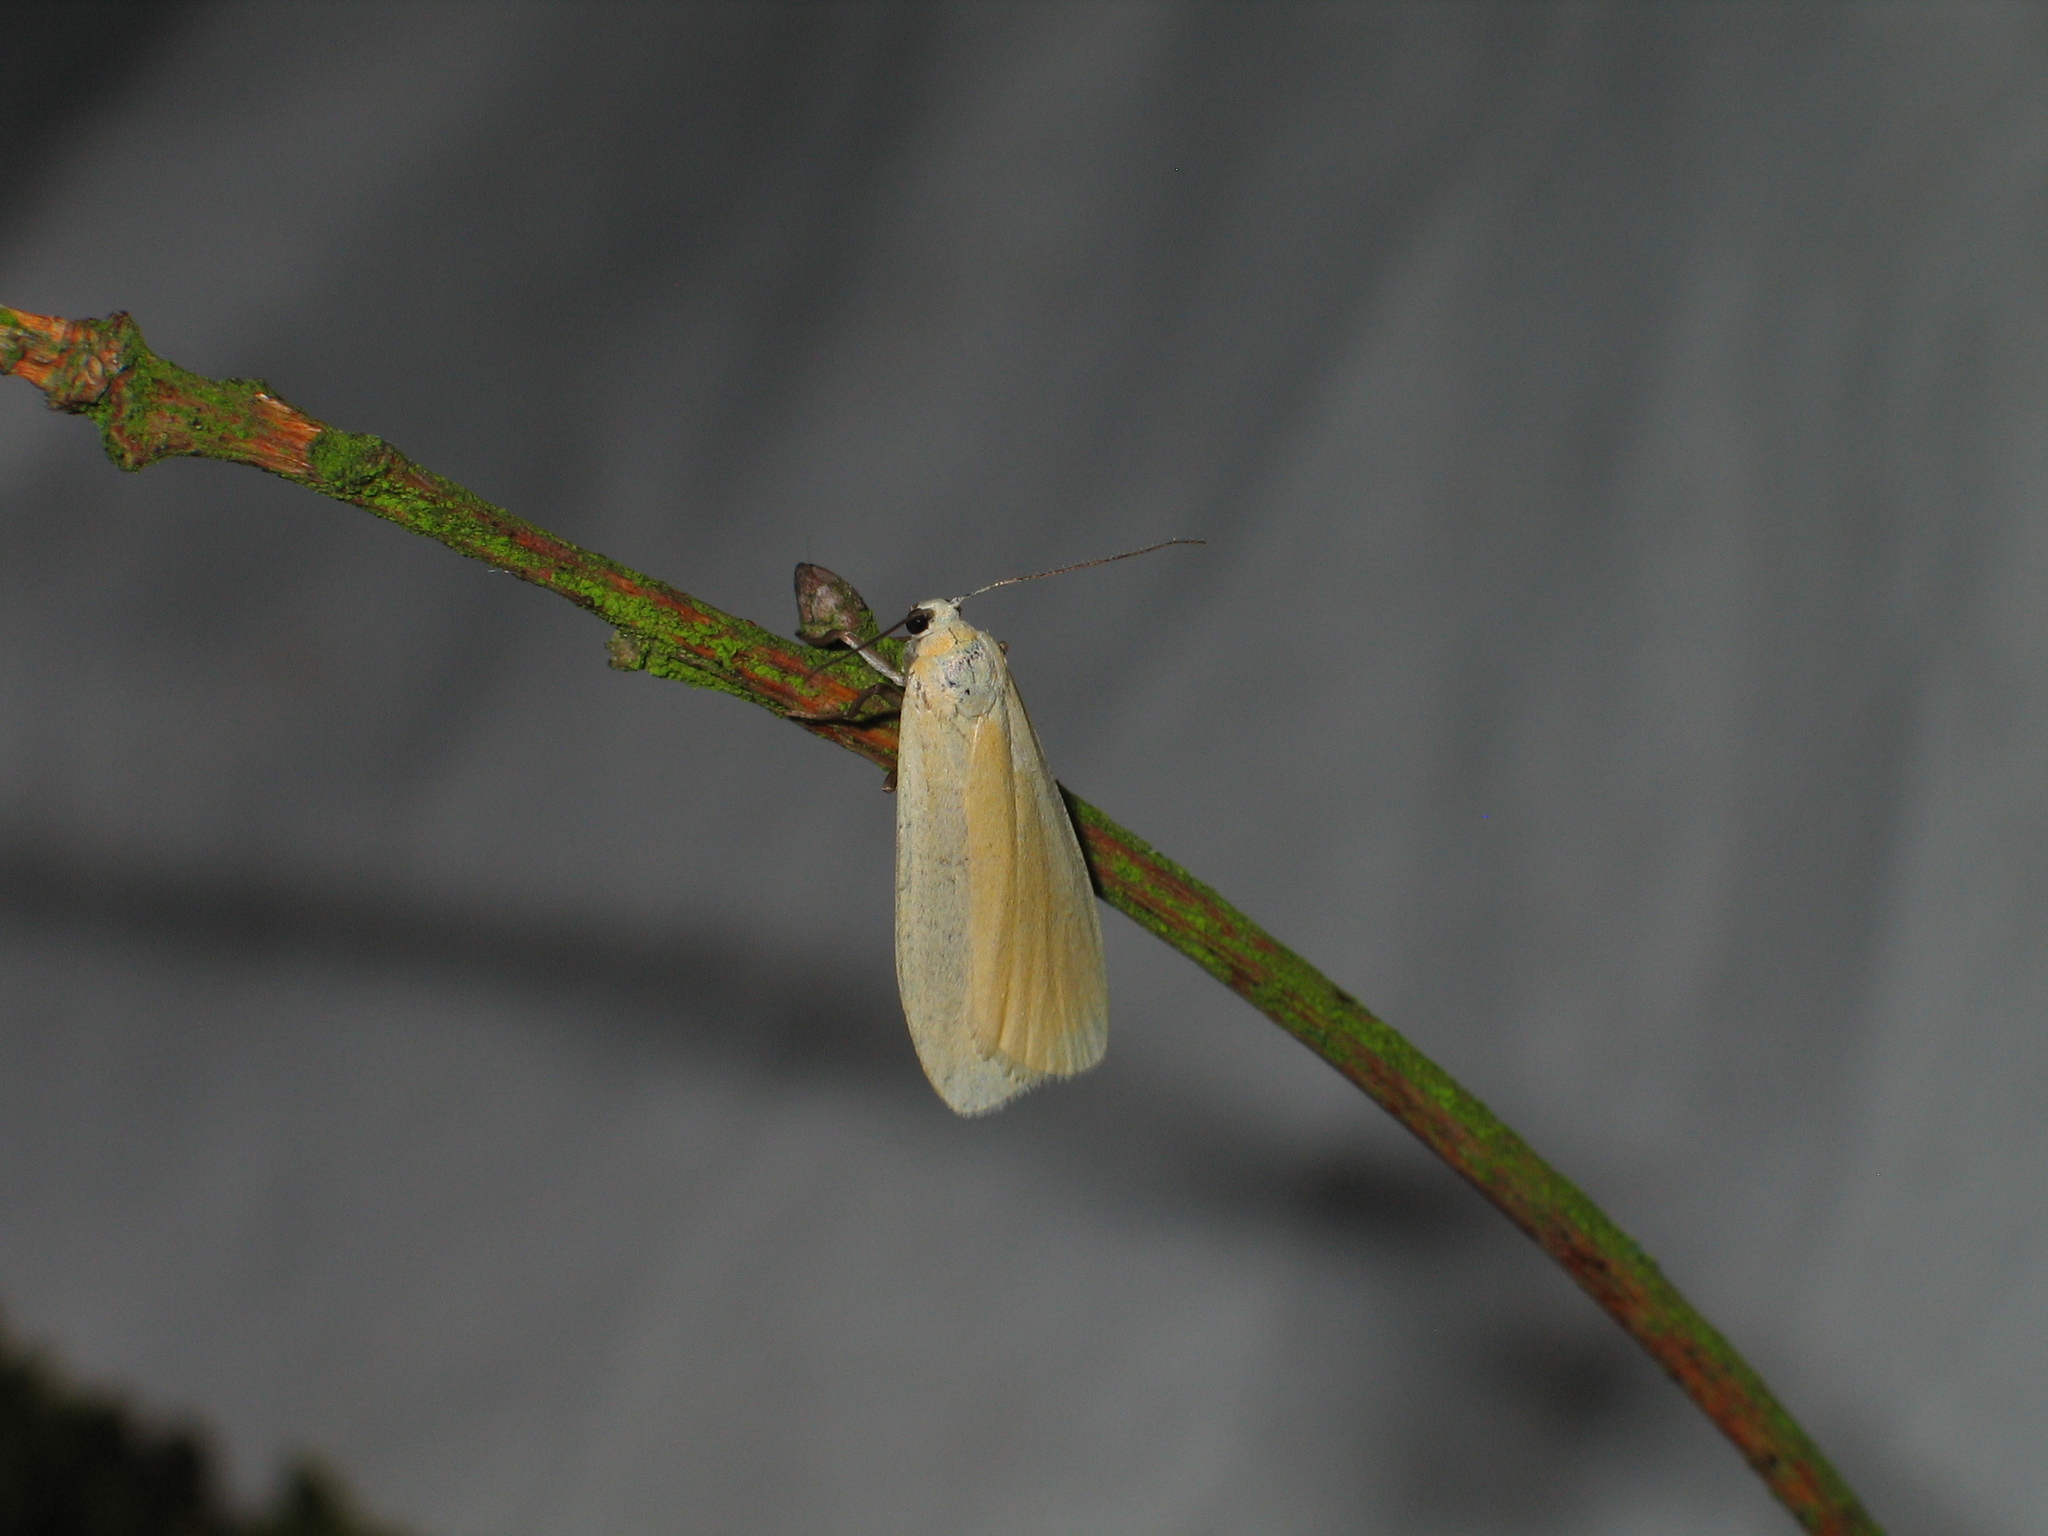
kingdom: Animalia
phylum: Arthropoda
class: Insecta
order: Lepidoptera
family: Erebidae
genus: Wittia
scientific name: Wittia sororcula
